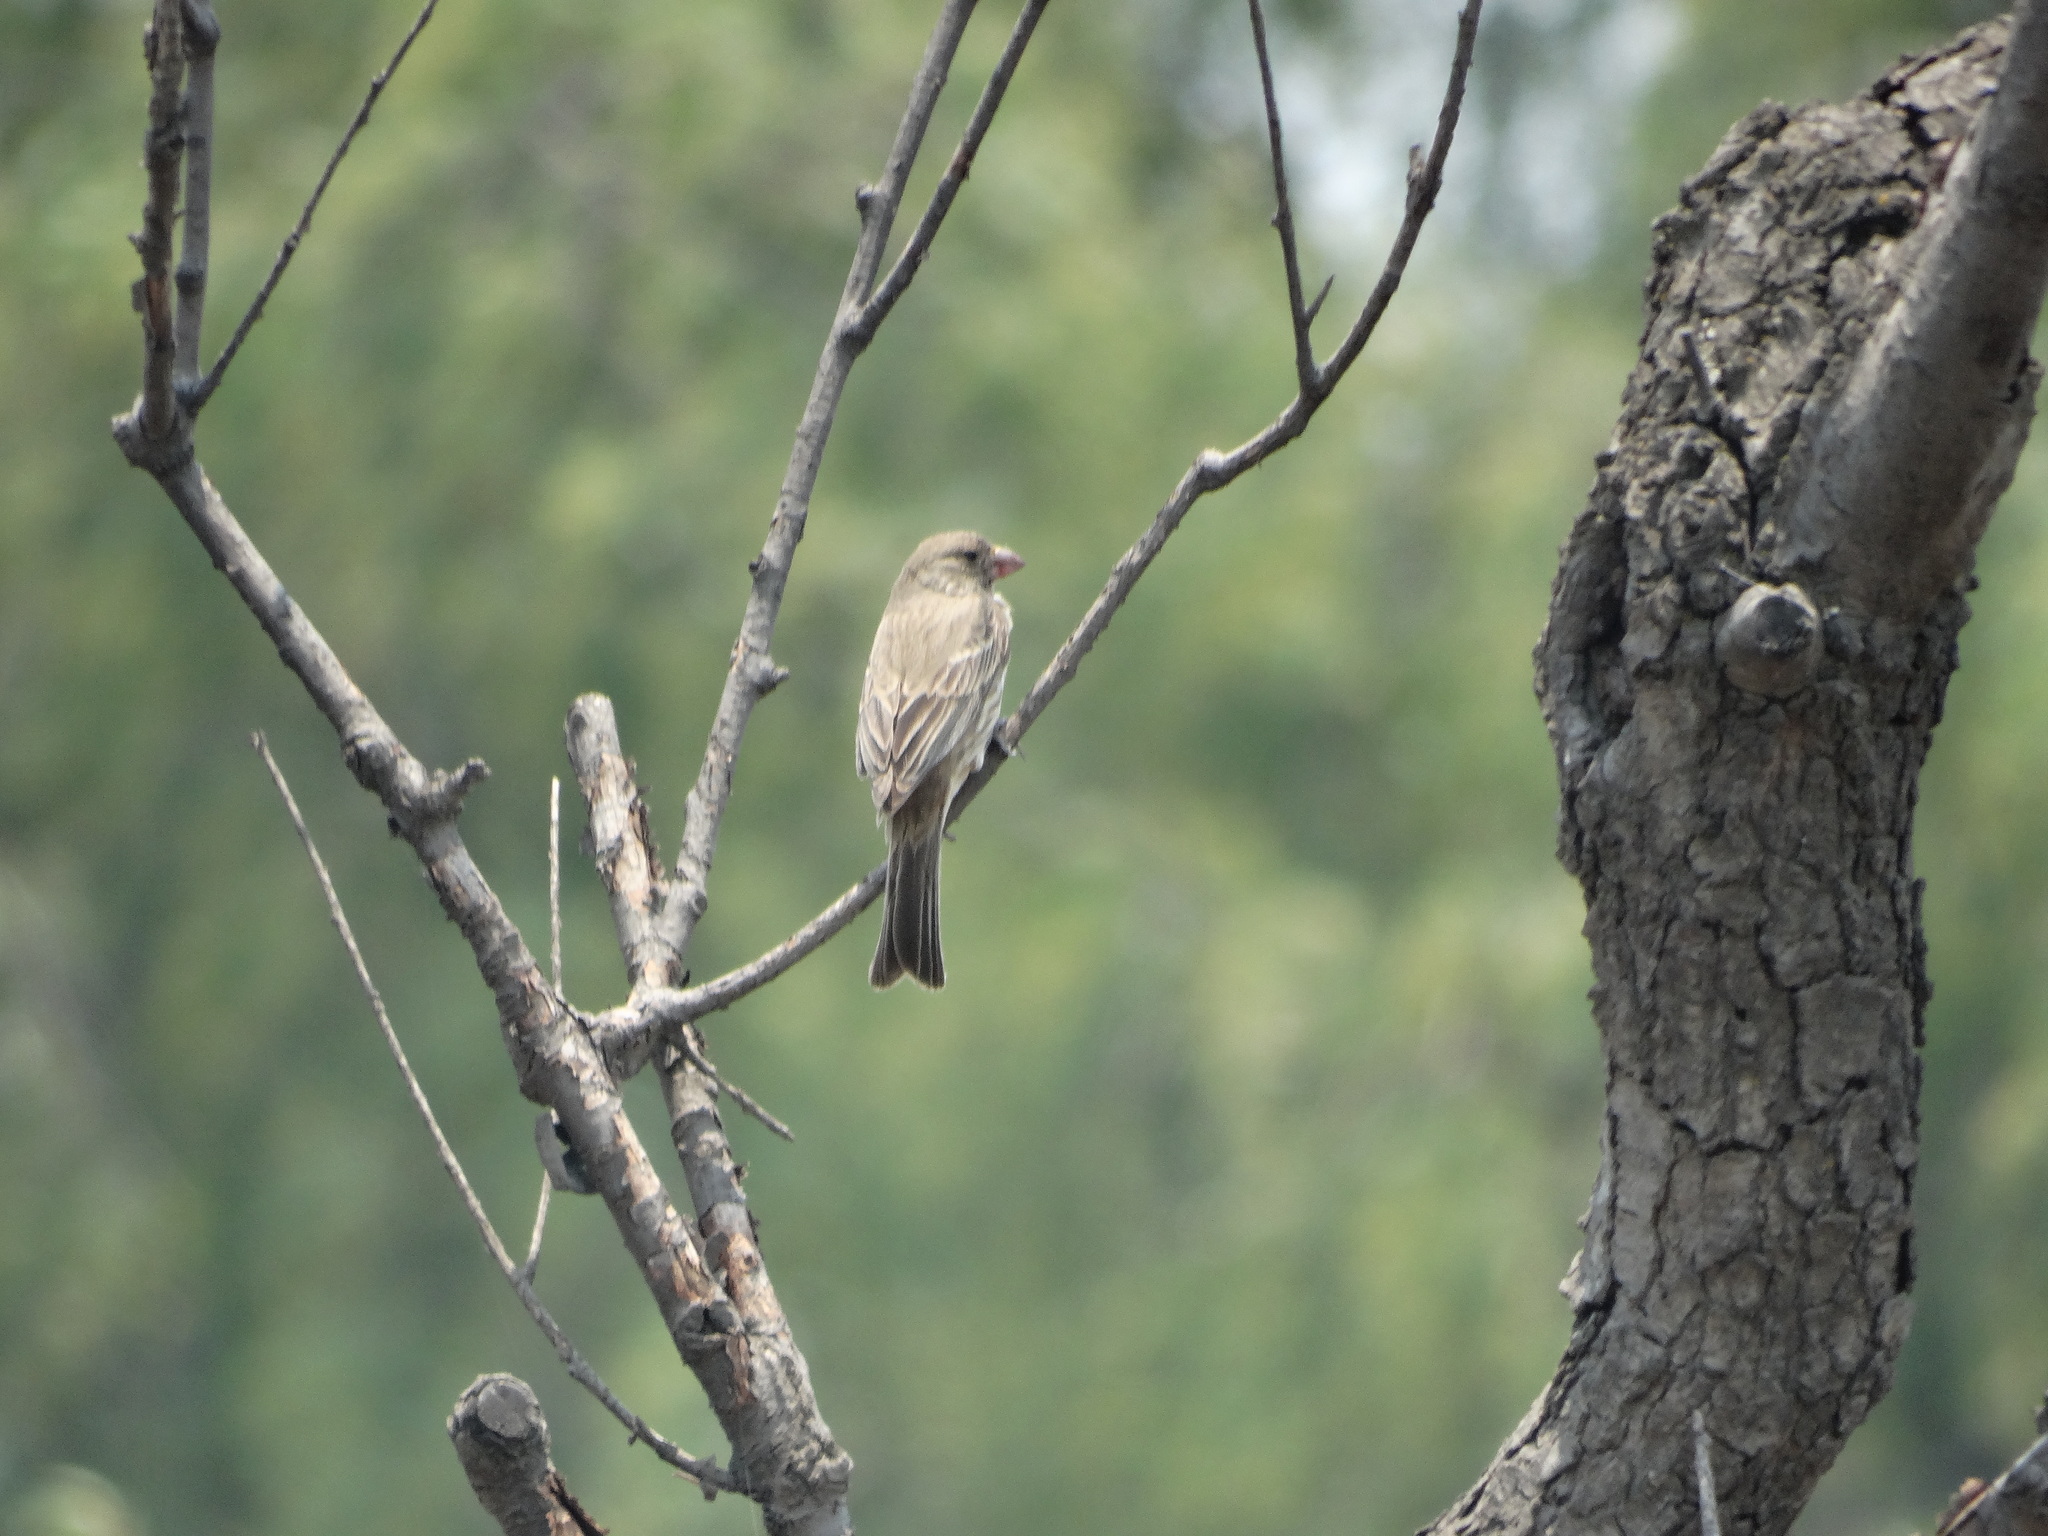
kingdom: Animalia
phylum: Chordata
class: Aves
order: Passeriformes
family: Fringillidae
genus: Haemorhous
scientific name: Haemorhous mexicanus
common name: House finch
